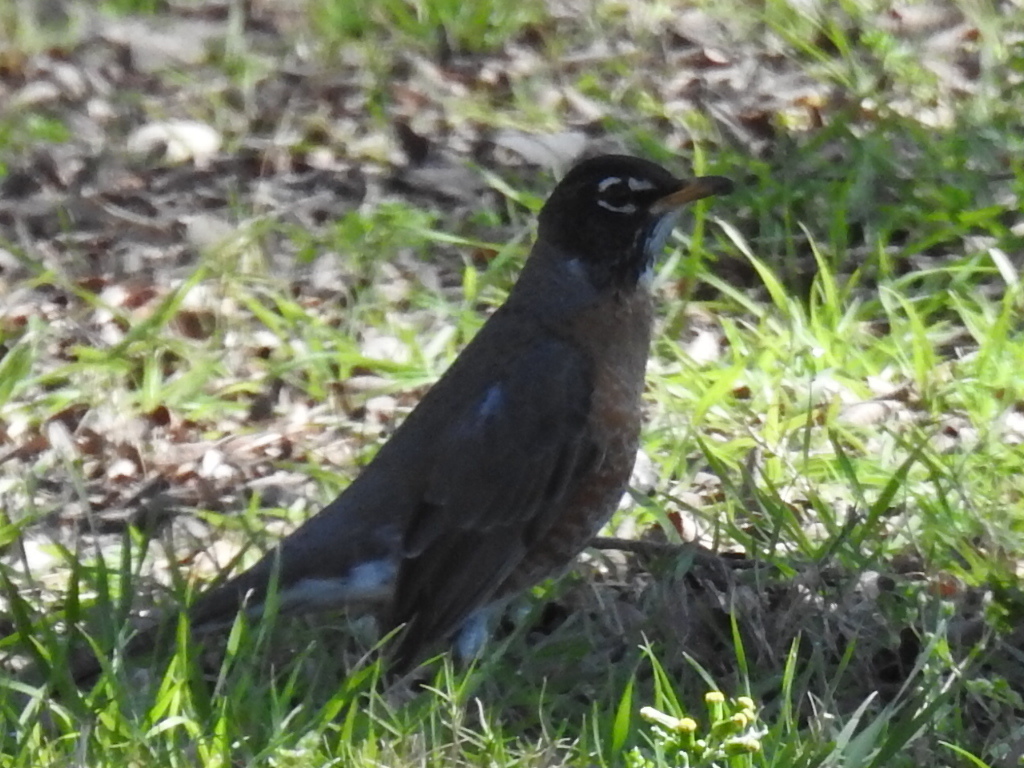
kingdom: Animalia
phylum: Chordata
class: Aves
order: Passeriformes
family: Turdidae
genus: Turdus
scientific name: Turdus migratorius
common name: American robin
